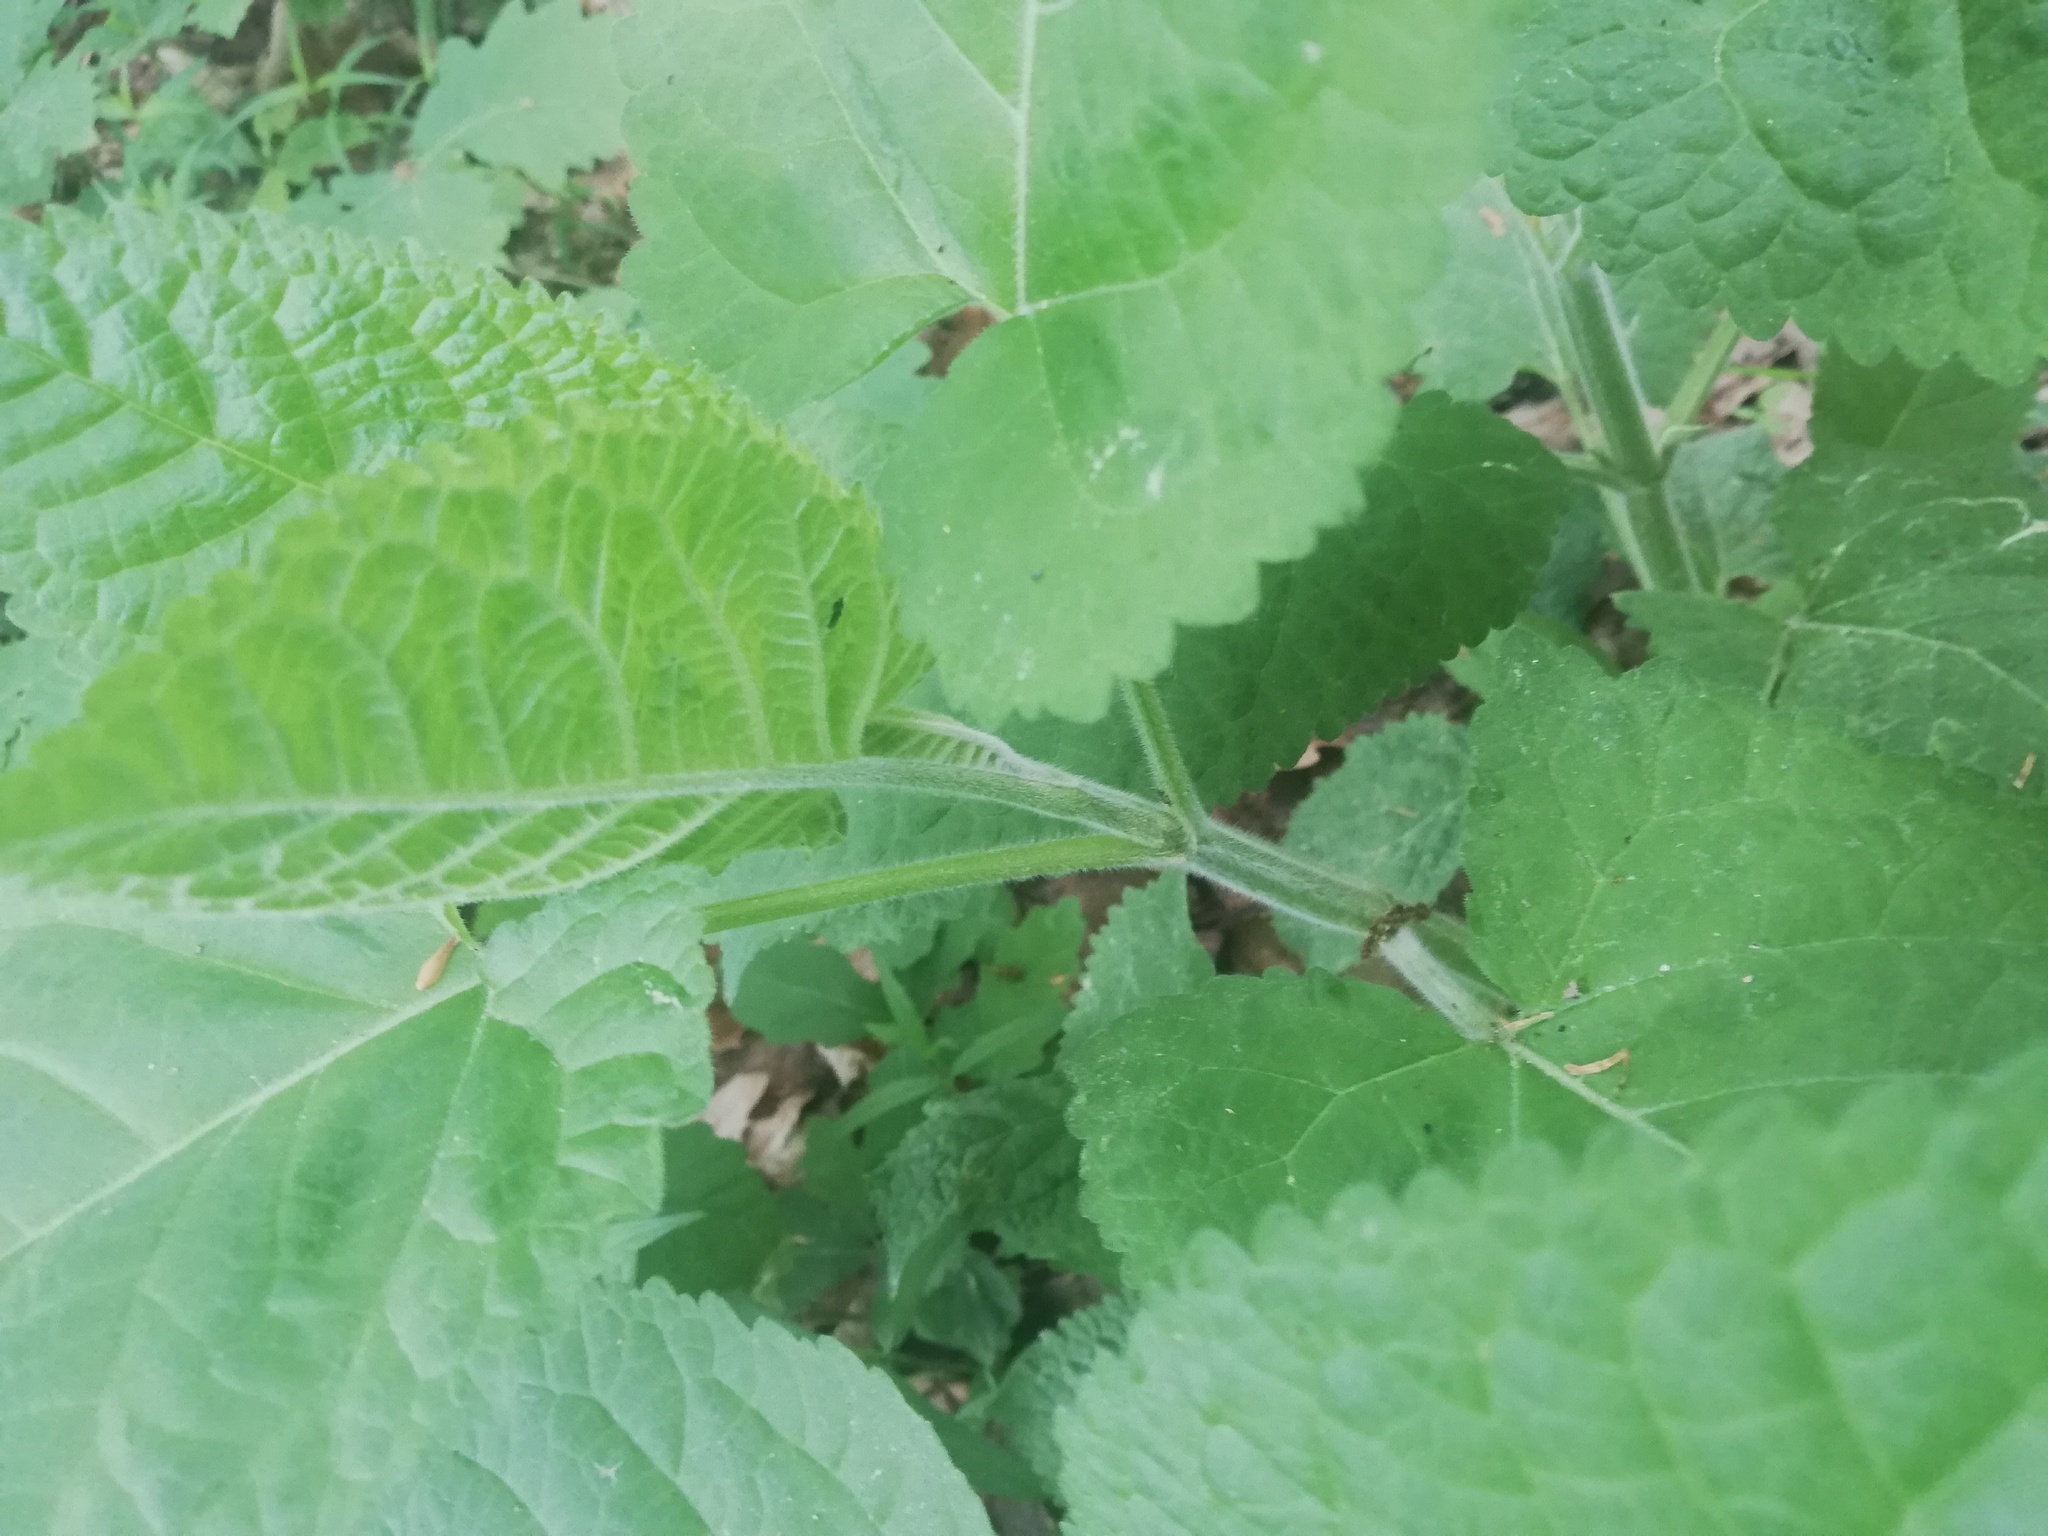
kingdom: Plantae
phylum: Tracheophyta
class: Magnoliopsida
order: Dipsacales
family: Caprifoliaceae
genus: Knautia
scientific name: Knautia dipsacifolia
